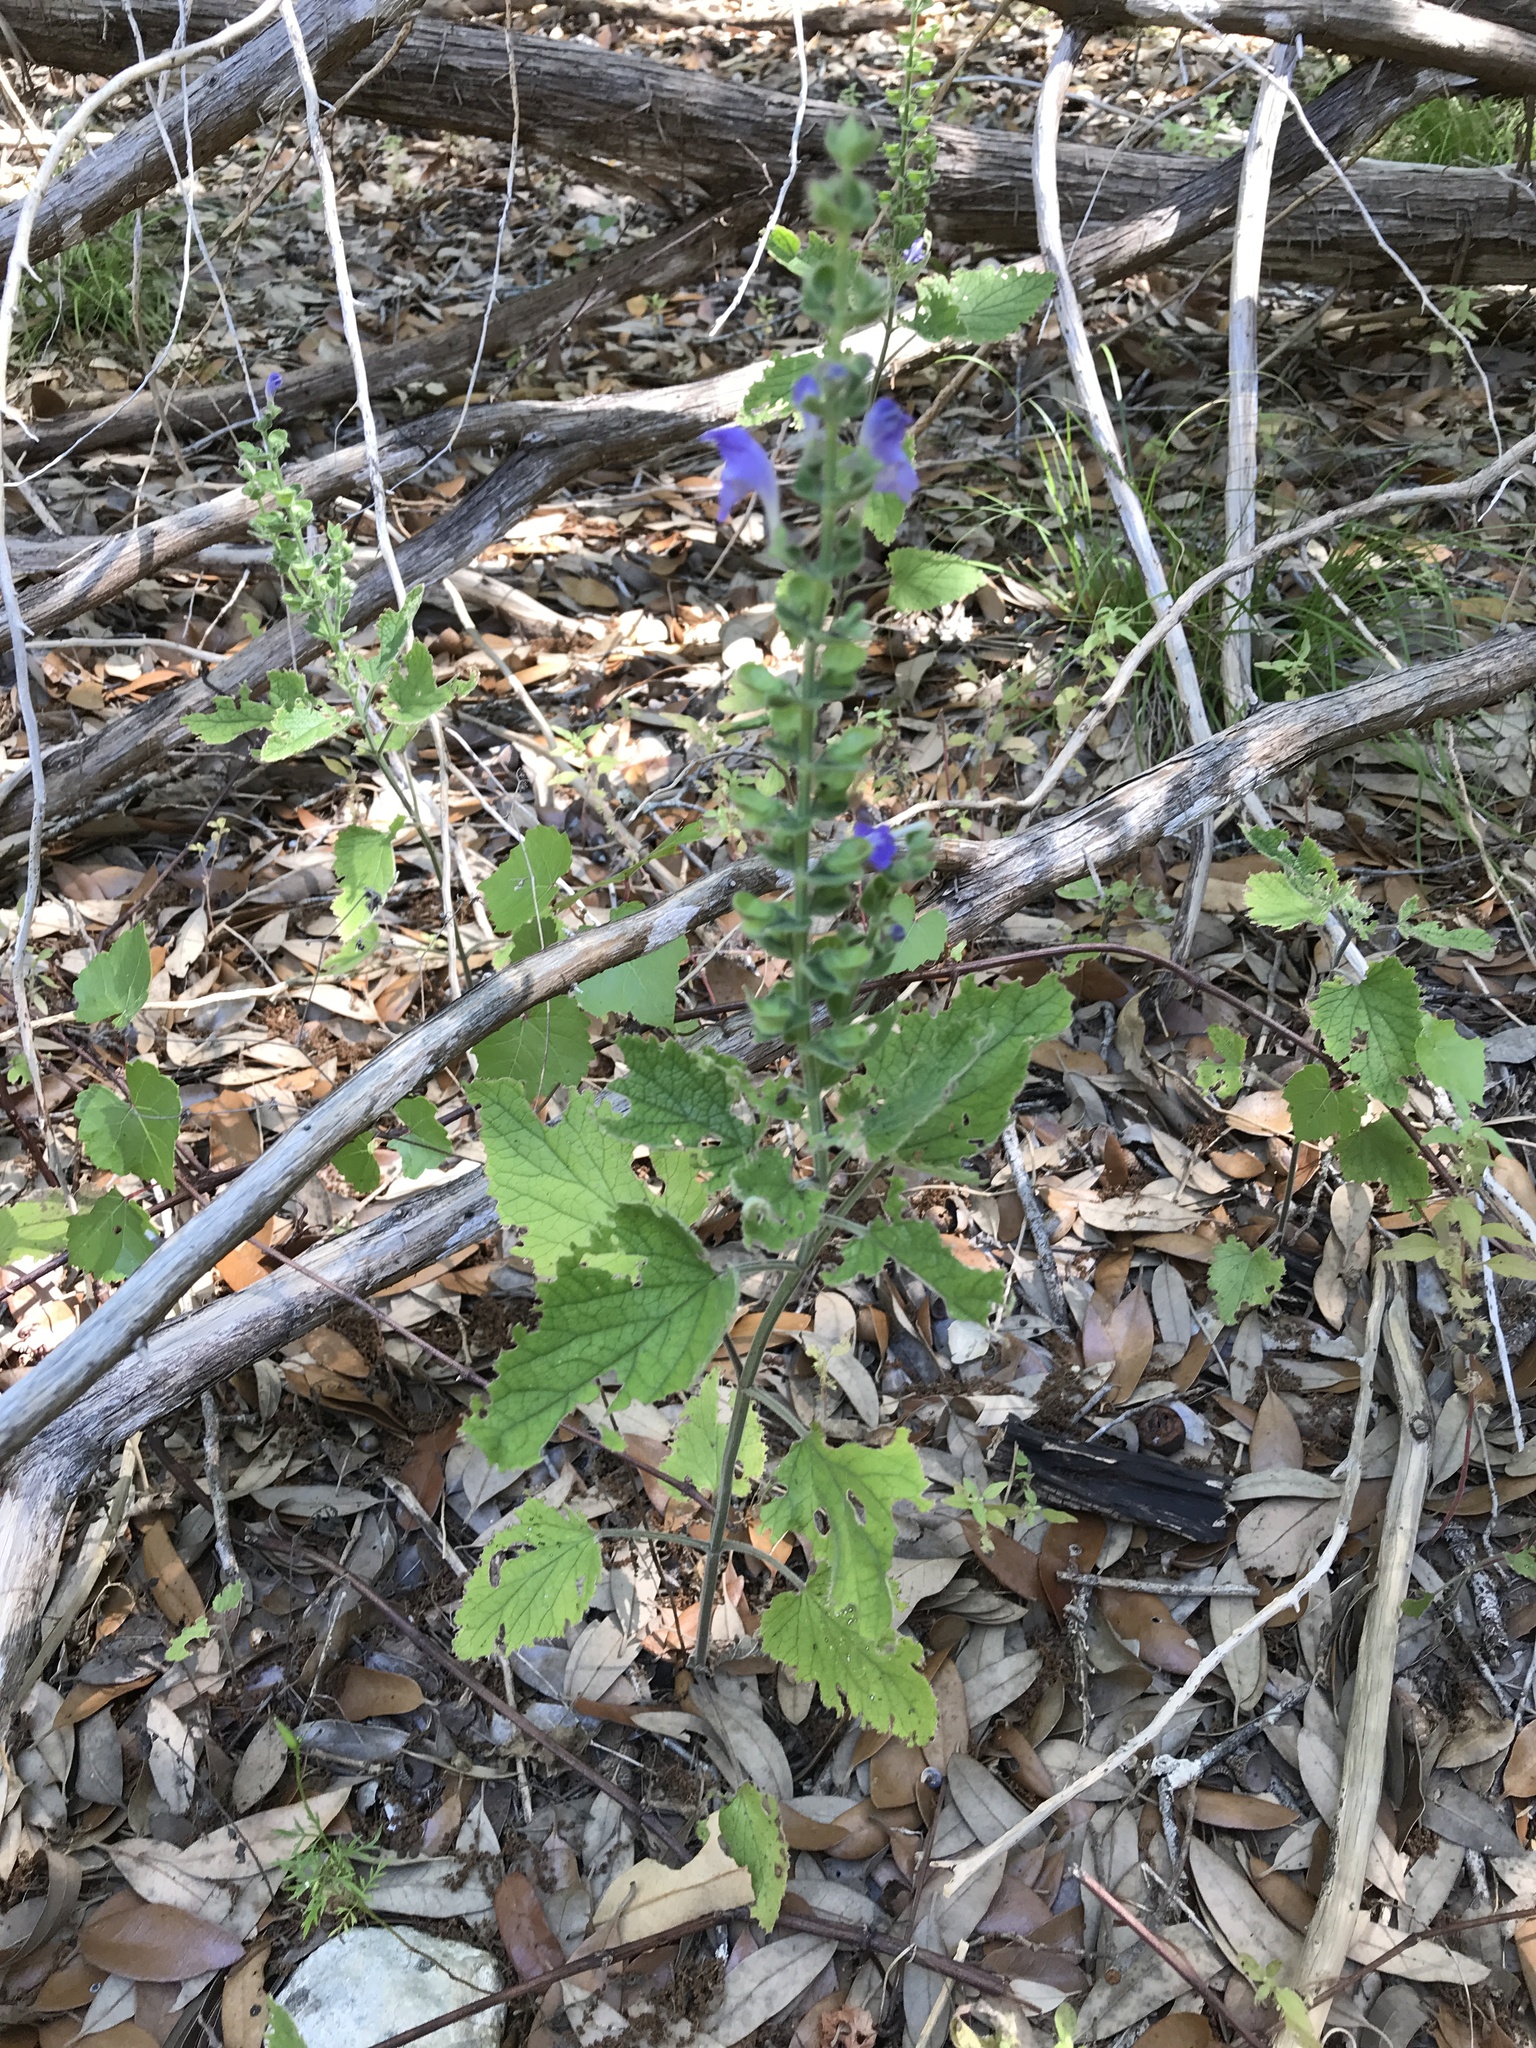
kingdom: Plantae
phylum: Tracheophyta
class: Magnoliopsida
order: Lamiales
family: Lamiaceae
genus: Scutellaria
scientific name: Scutellaria ovata
